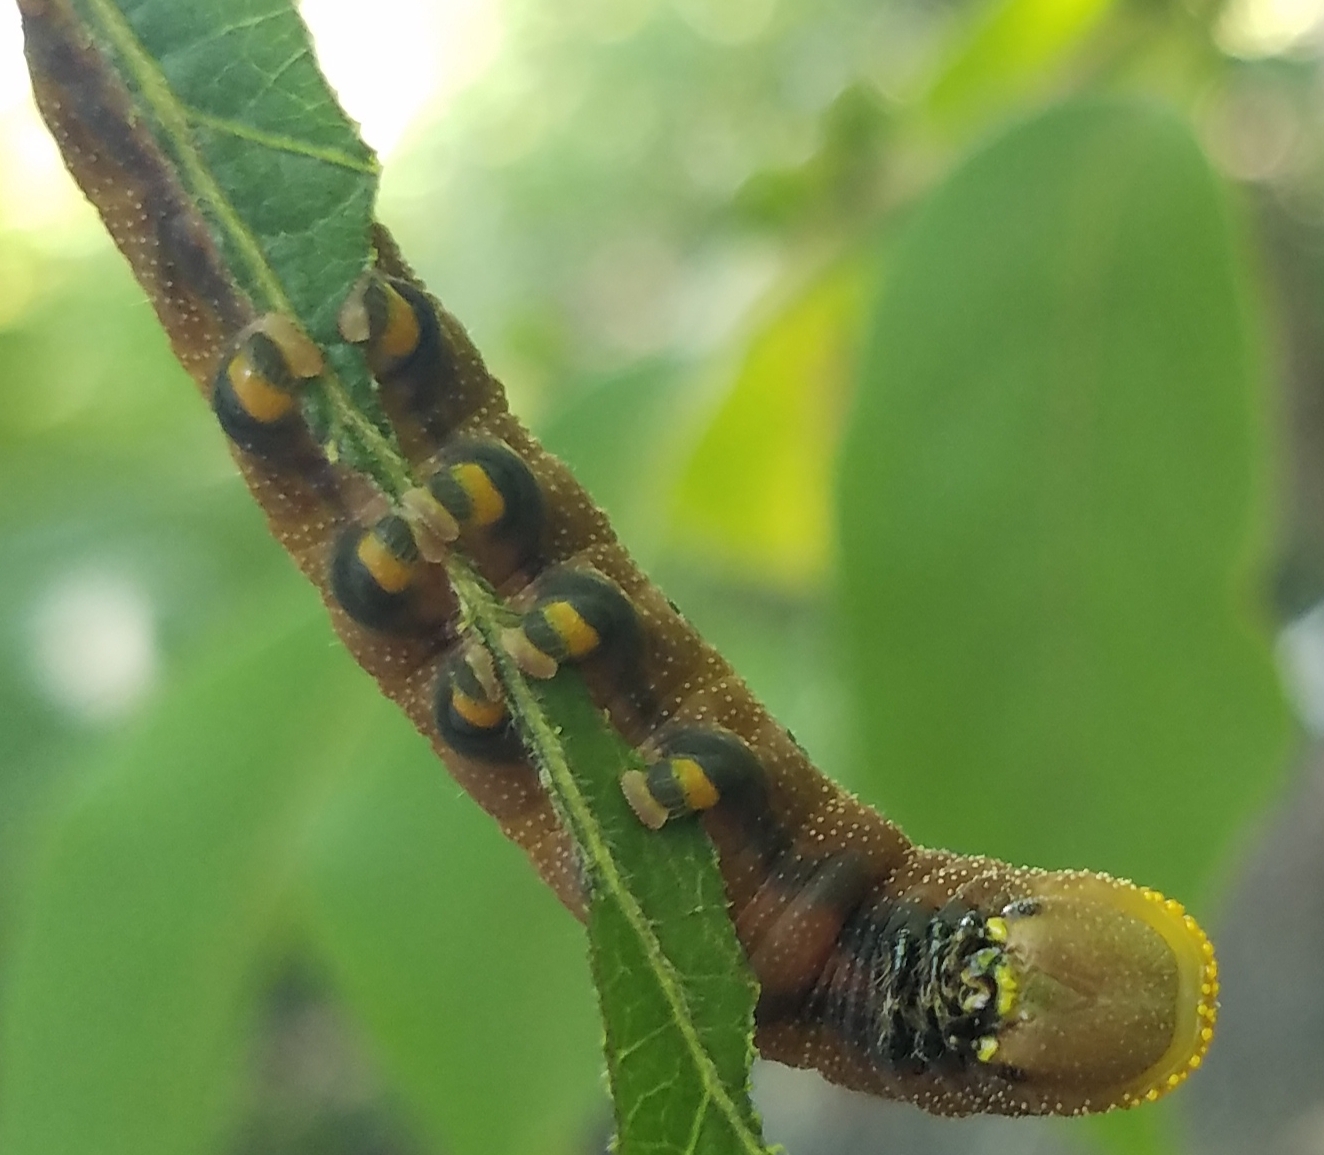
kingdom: Animalia
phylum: Arthropoda
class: Insecta
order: Lepidoptera
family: Sphingidae
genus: Hemaris
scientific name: Hemaris diffinis
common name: Bumblebee moth
